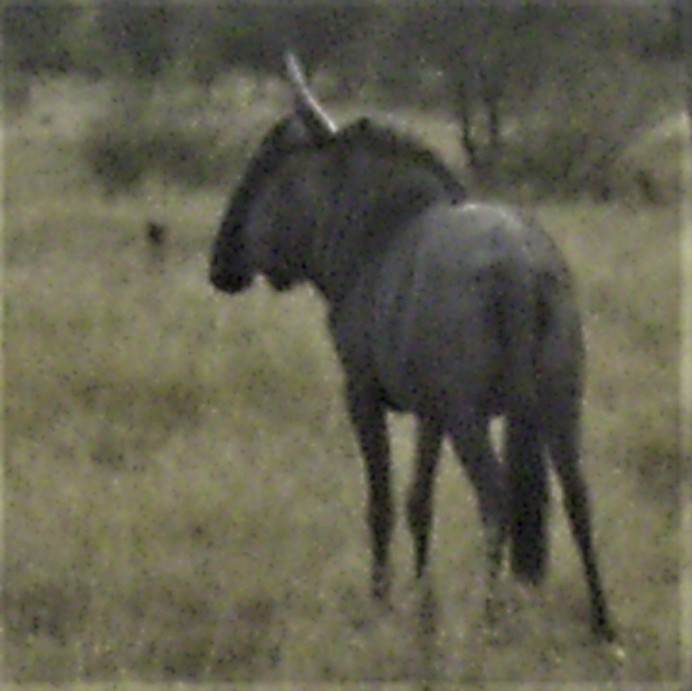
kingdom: Animalia
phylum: Chordata
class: Mammalia
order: Artiodactyla
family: Bovidae
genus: Connochaetes
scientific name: Connochaetes taurinus
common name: Blue wildebeest
